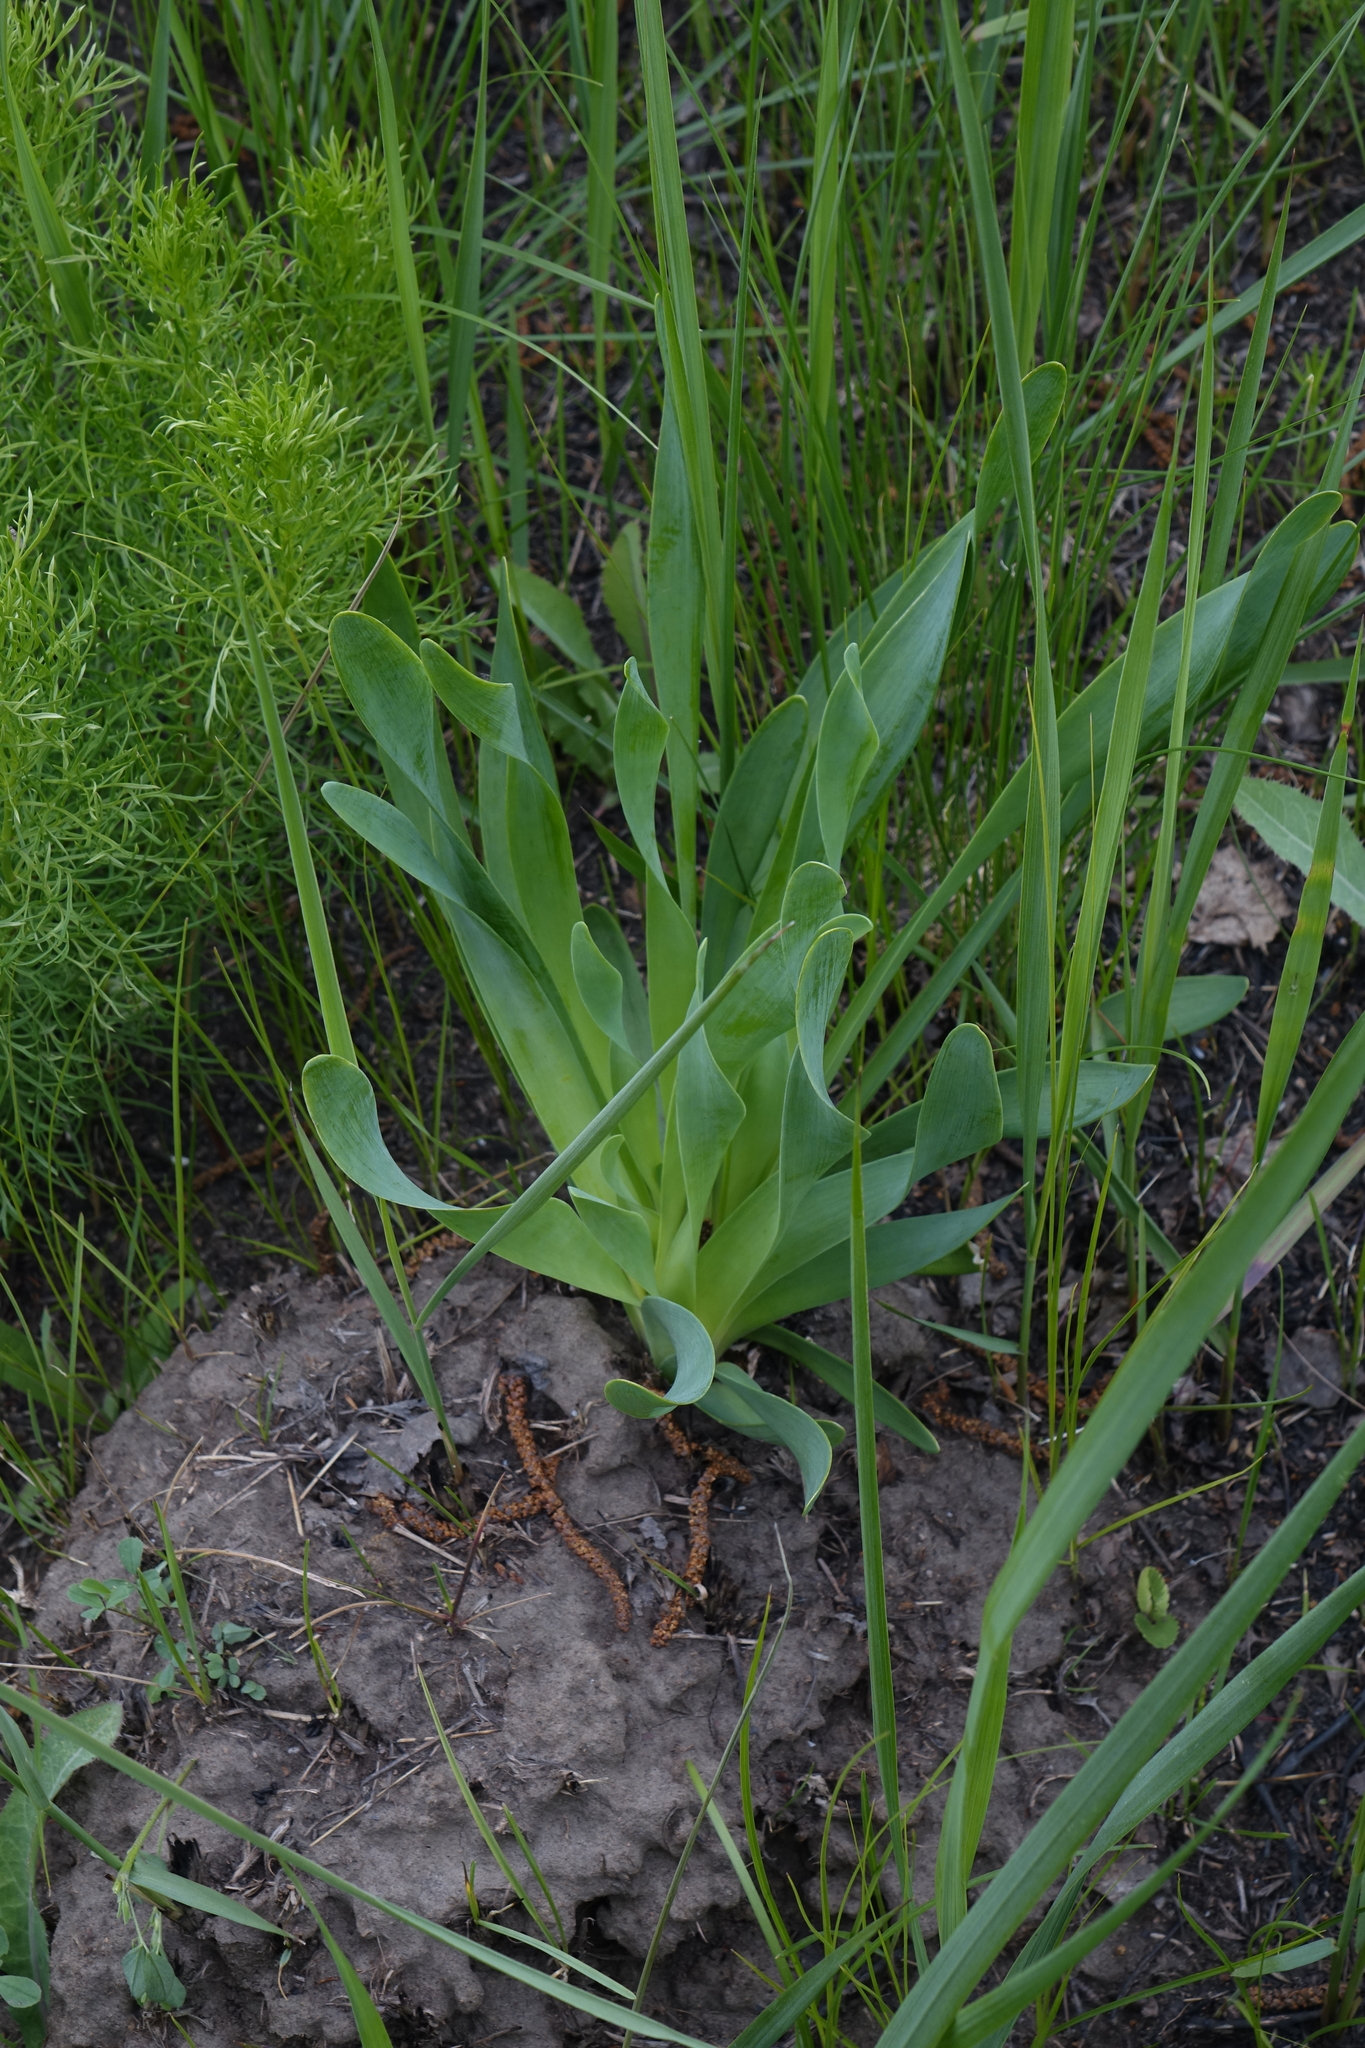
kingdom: Plantae
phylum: Tracheophyta
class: Liliopsida
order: Asparagales
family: Amaryllidaceae
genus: Allium
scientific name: Allium nutans
